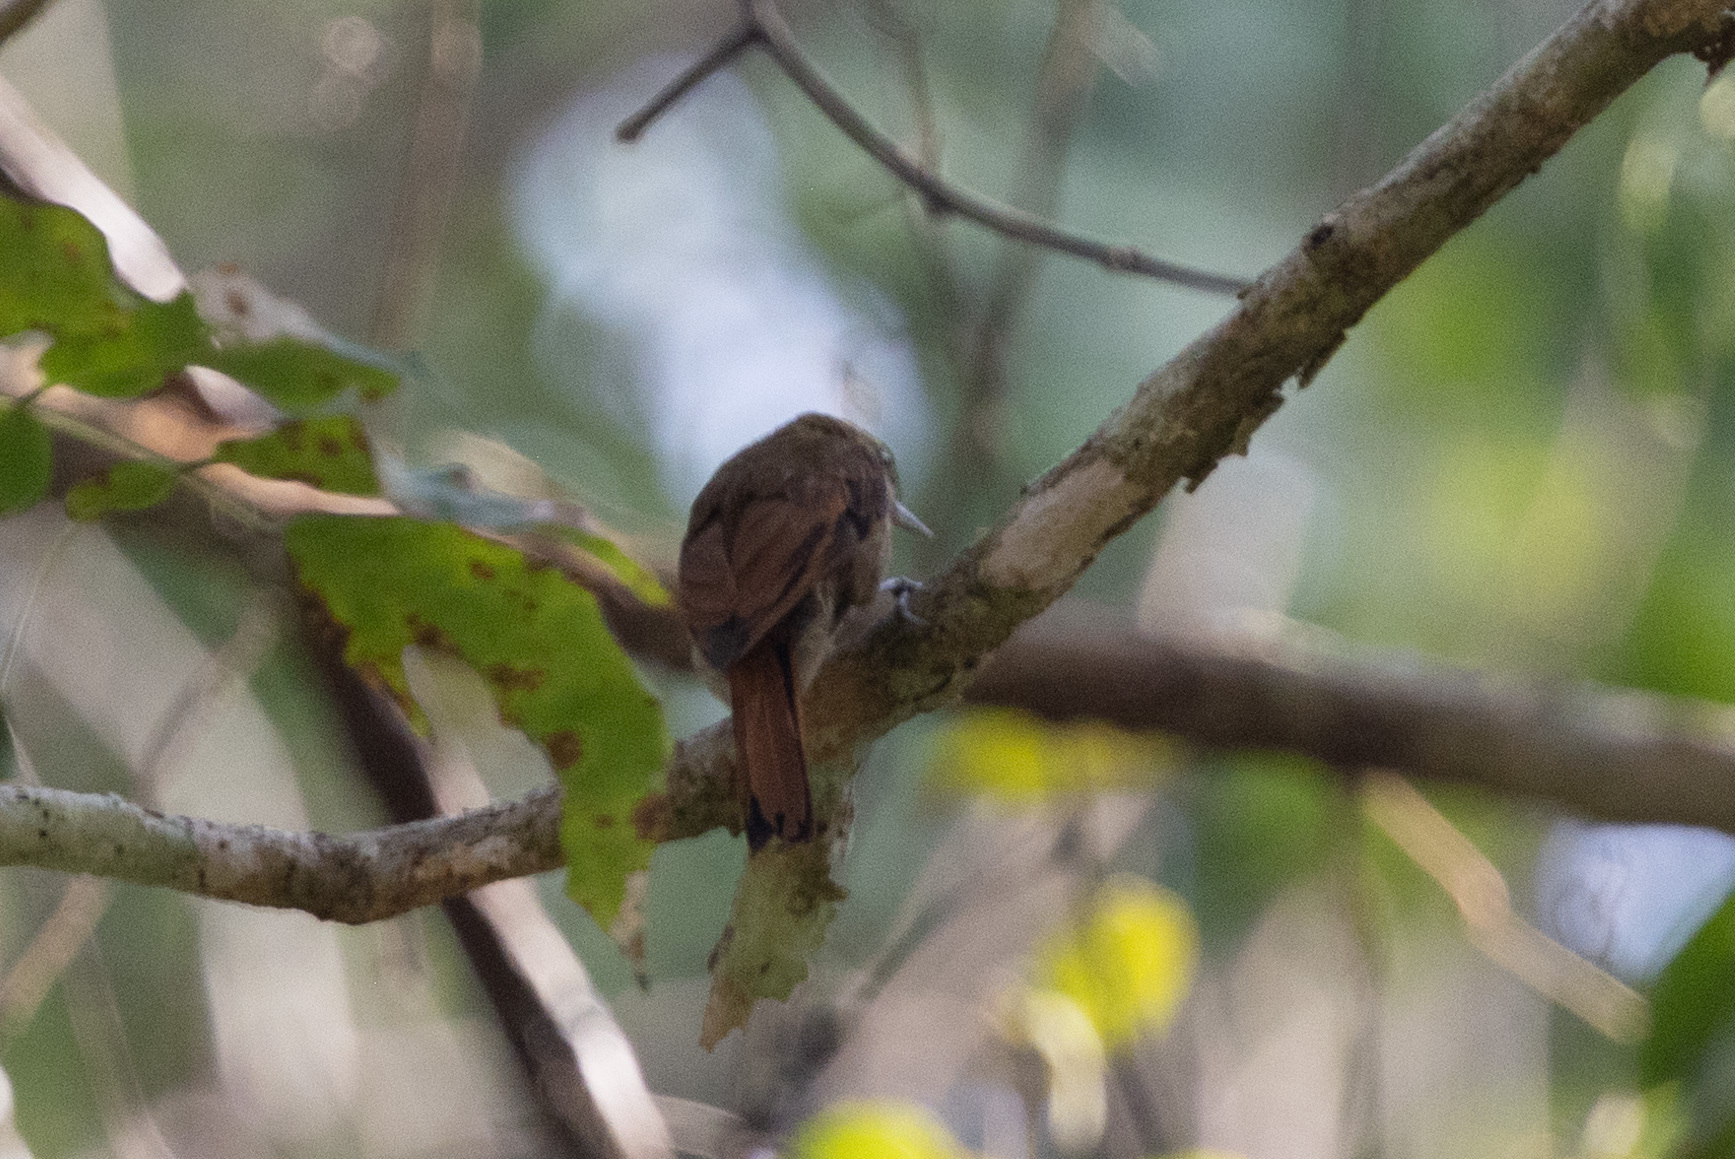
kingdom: Animalia
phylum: Chordata
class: Aves
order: Passeriformes
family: Furnariidae
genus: Xenops
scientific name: Xenops minutus
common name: Plain xenops
